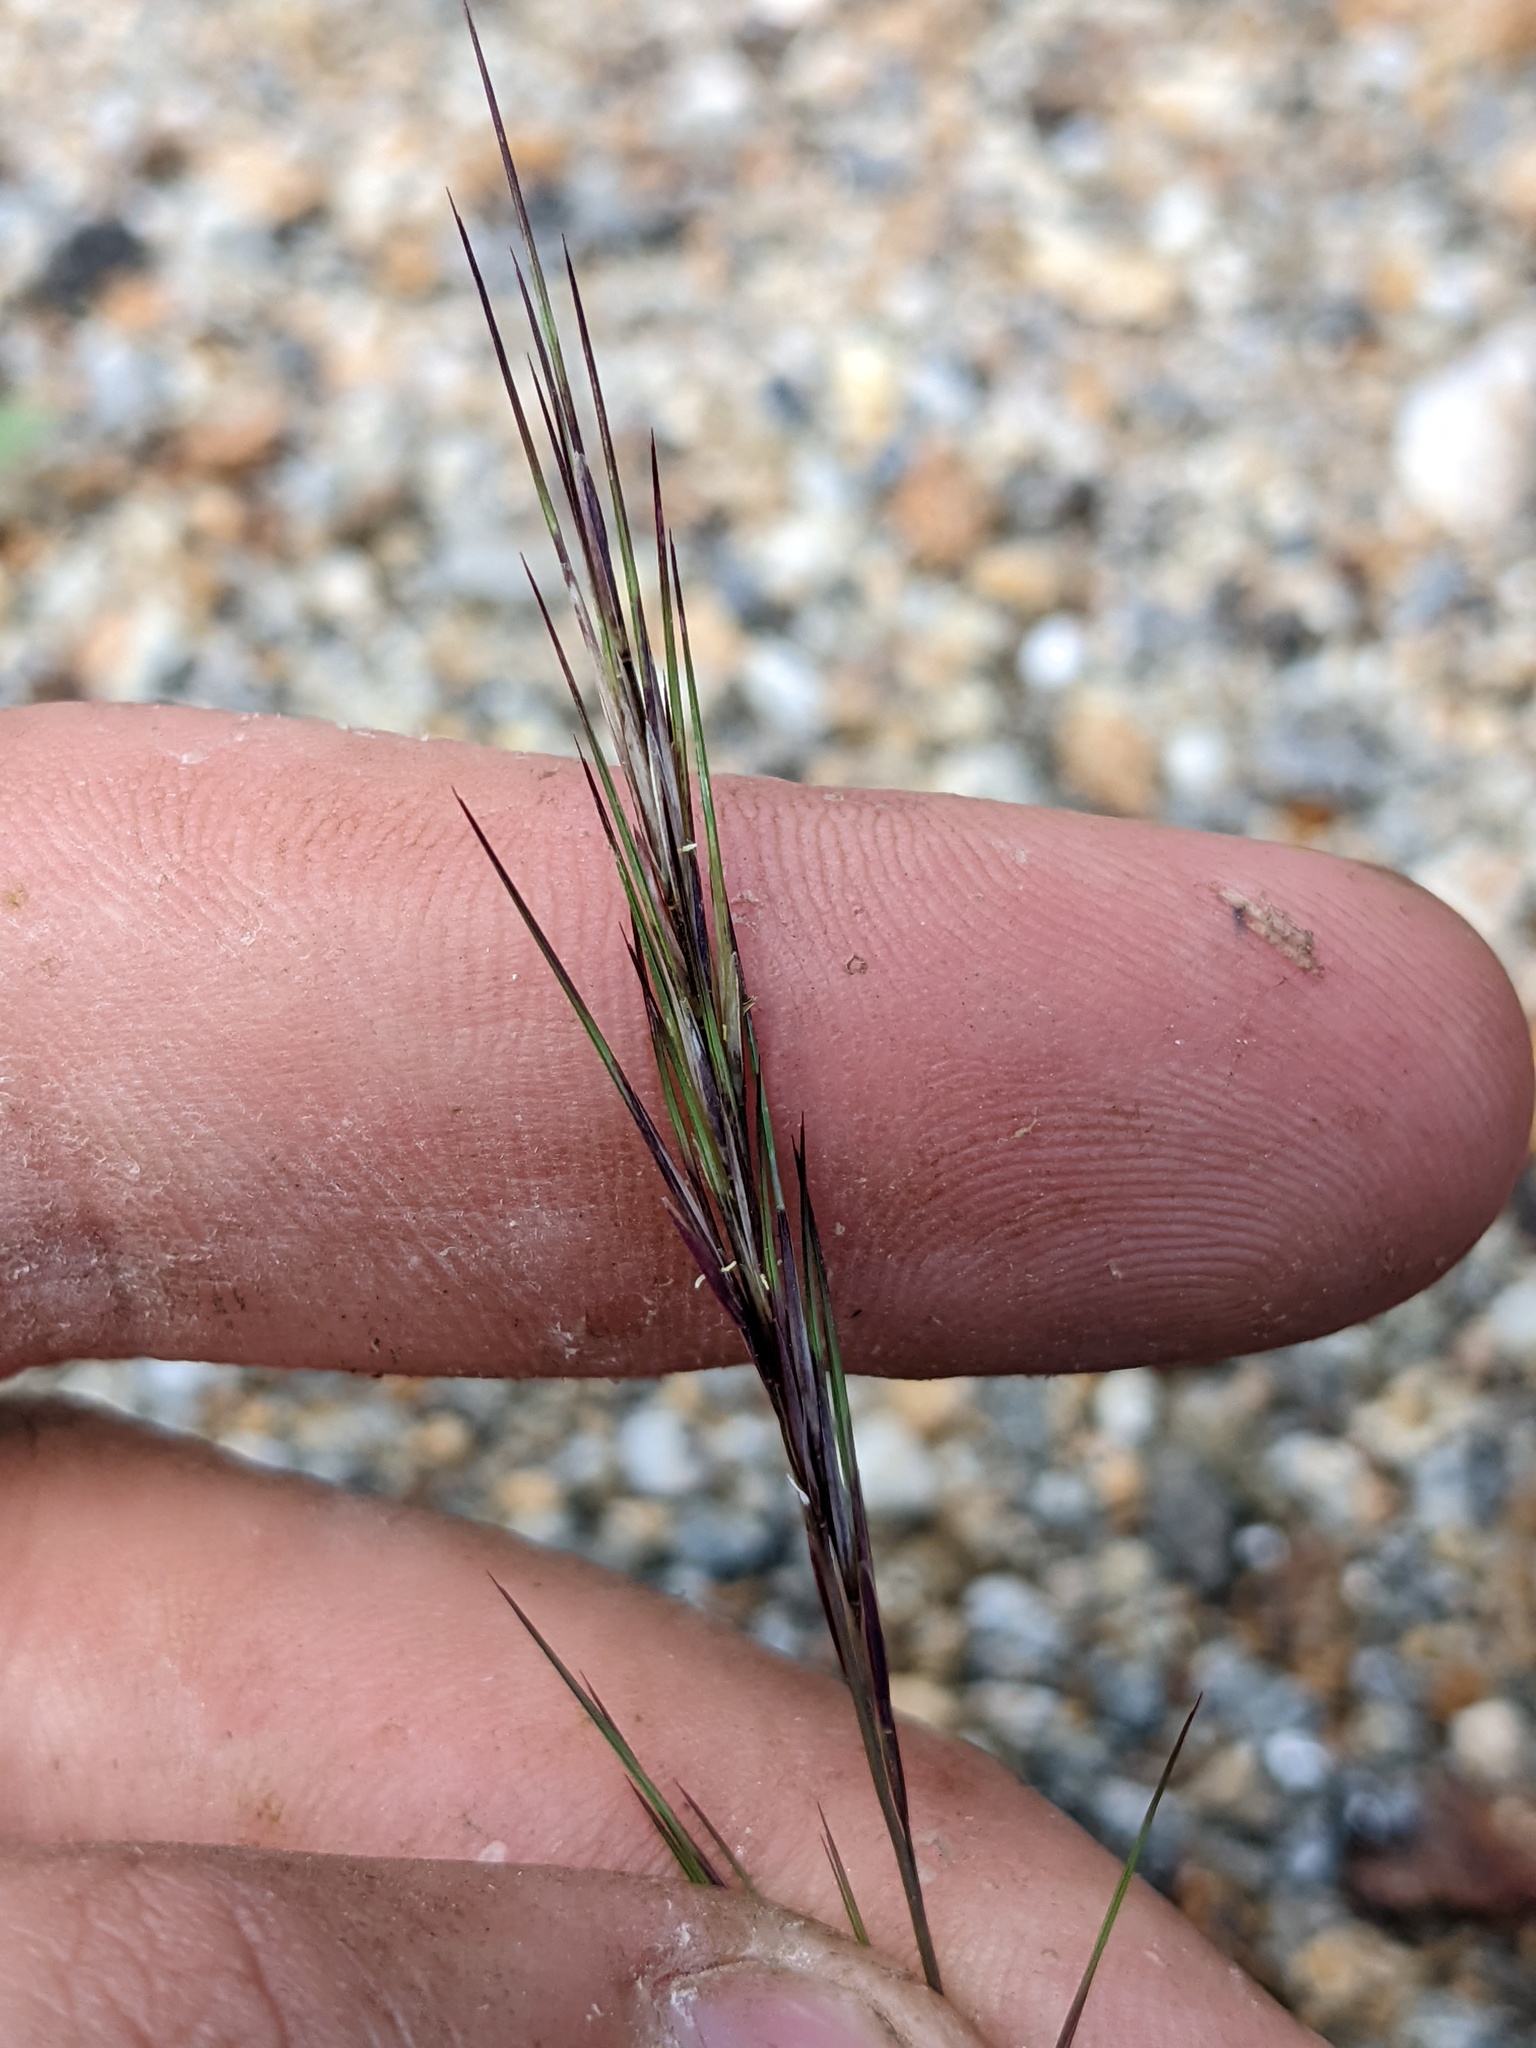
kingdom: Plantae
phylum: Tracheophyta
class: Liliopsida
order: Poales
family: Poaceae
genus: Aristida
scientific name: Aristida adscensionis
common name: Sixweeks threeawn
